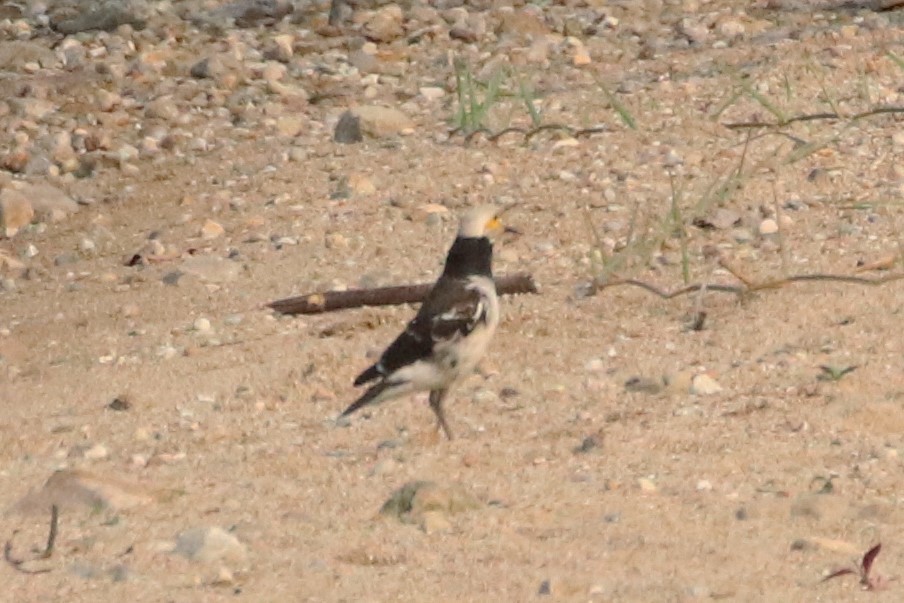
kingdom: Animalia
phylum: Chordata
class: Aves
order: Passeriformes
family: Sturnidae
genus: Gracupica
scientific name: Gracupica nigricollis
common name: Black-collared starling
